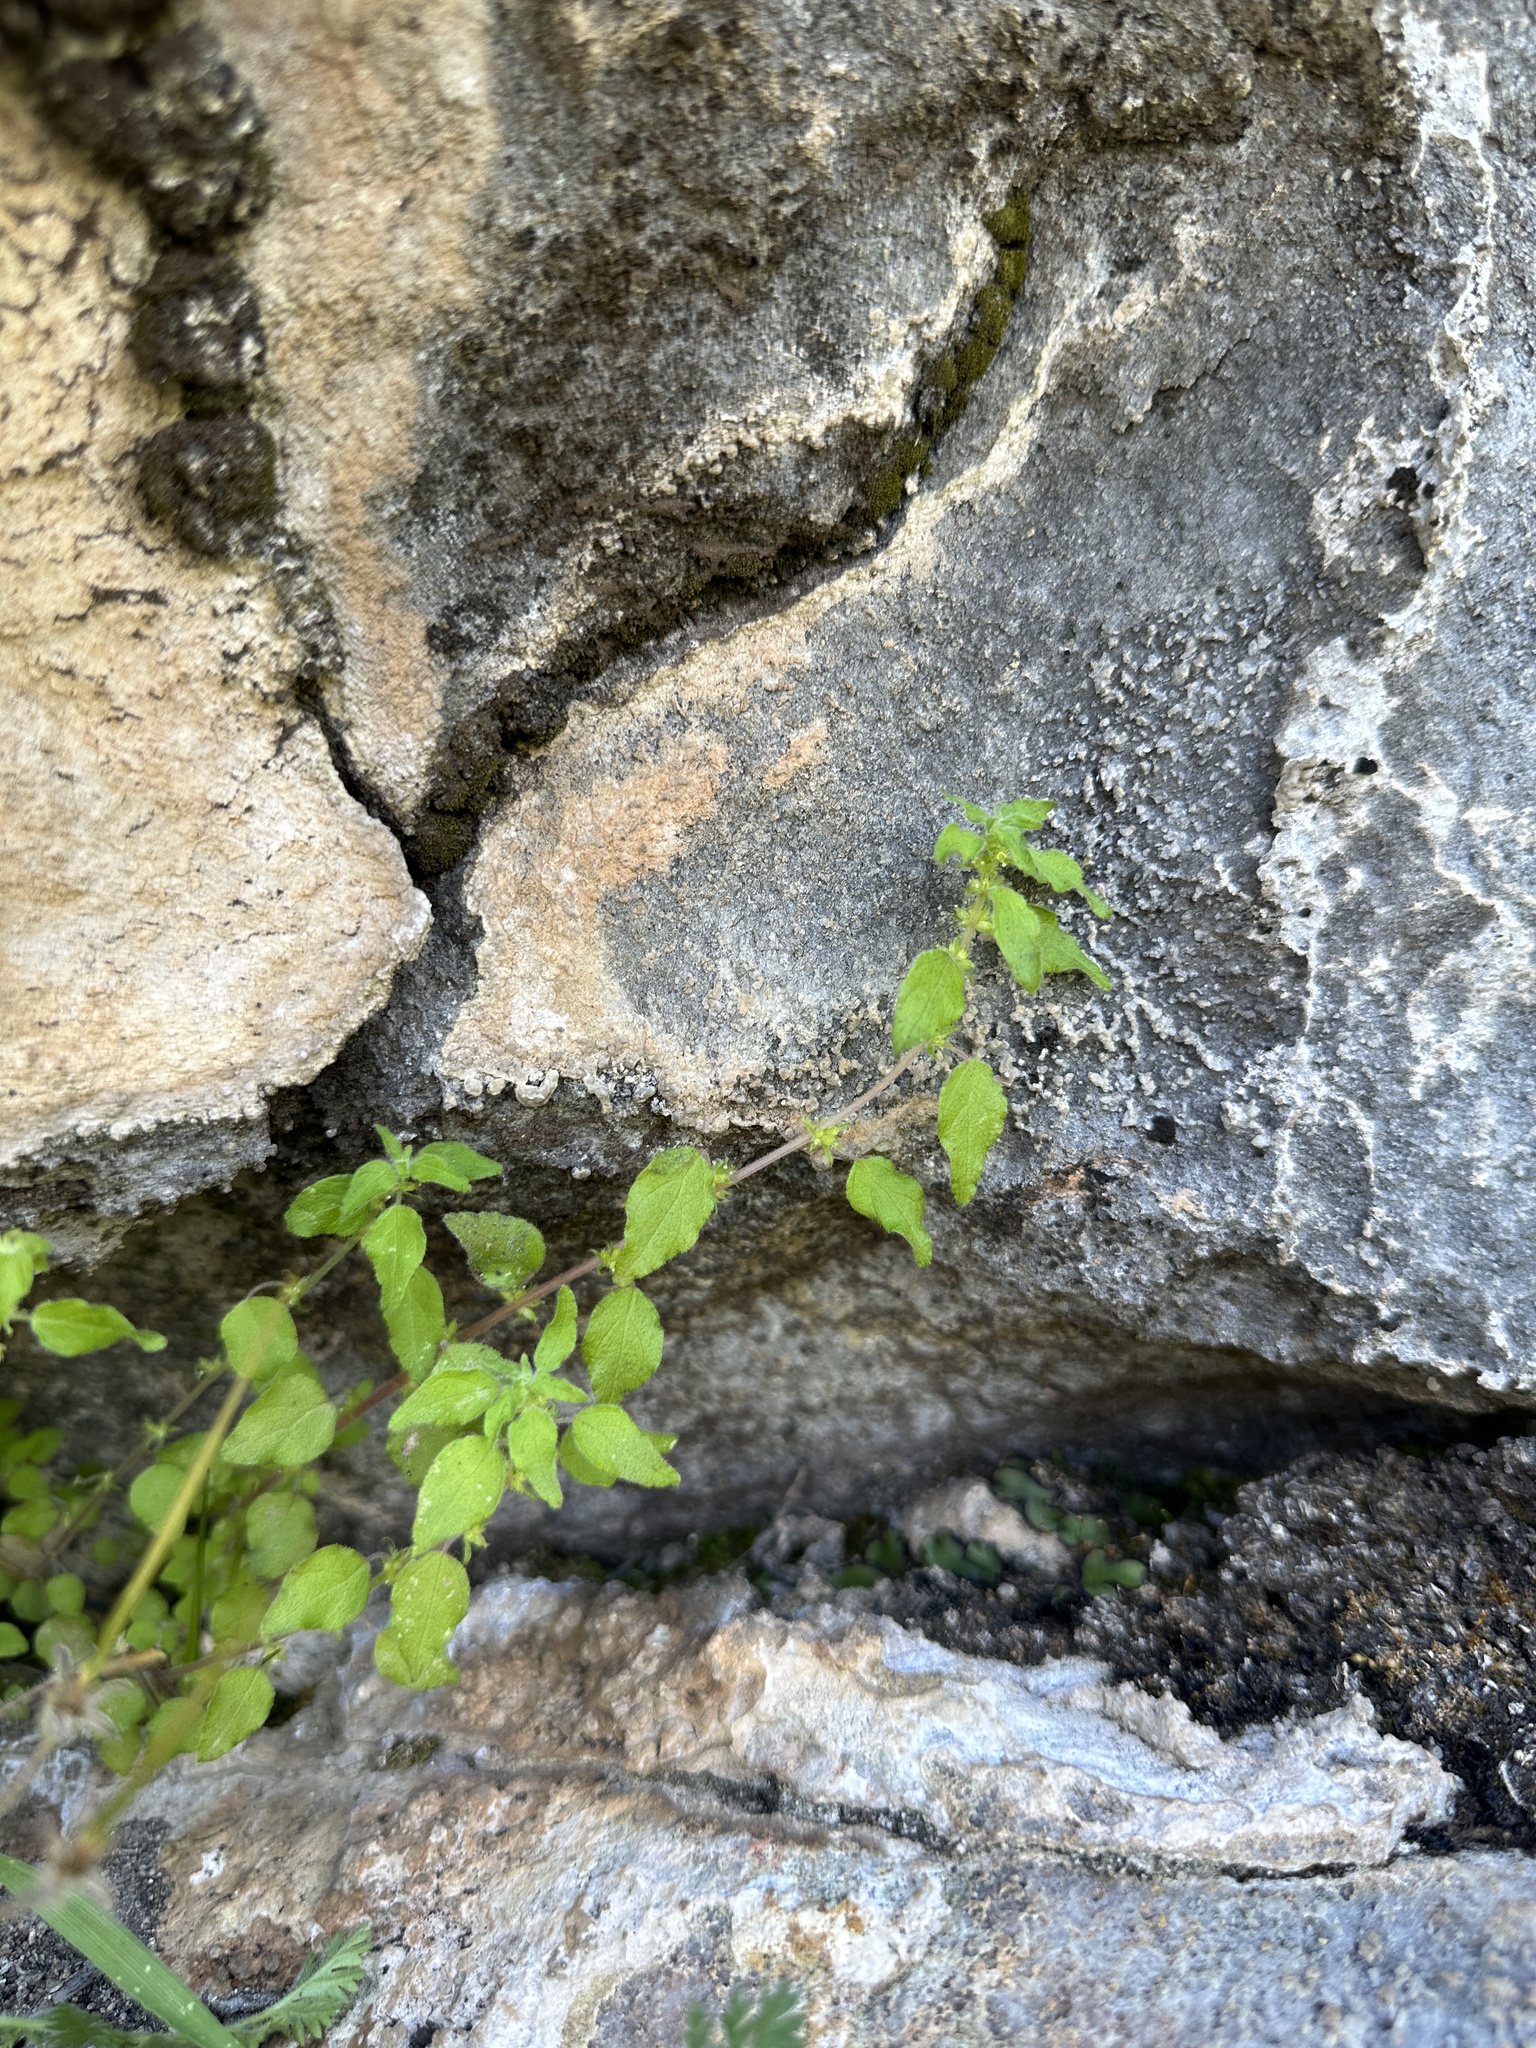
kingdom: Plantae
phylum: Tracheophyta
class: Magnoliopsida
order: Rosales
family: Urticaceae
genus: Parietaria
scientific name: Parietaria hespera
